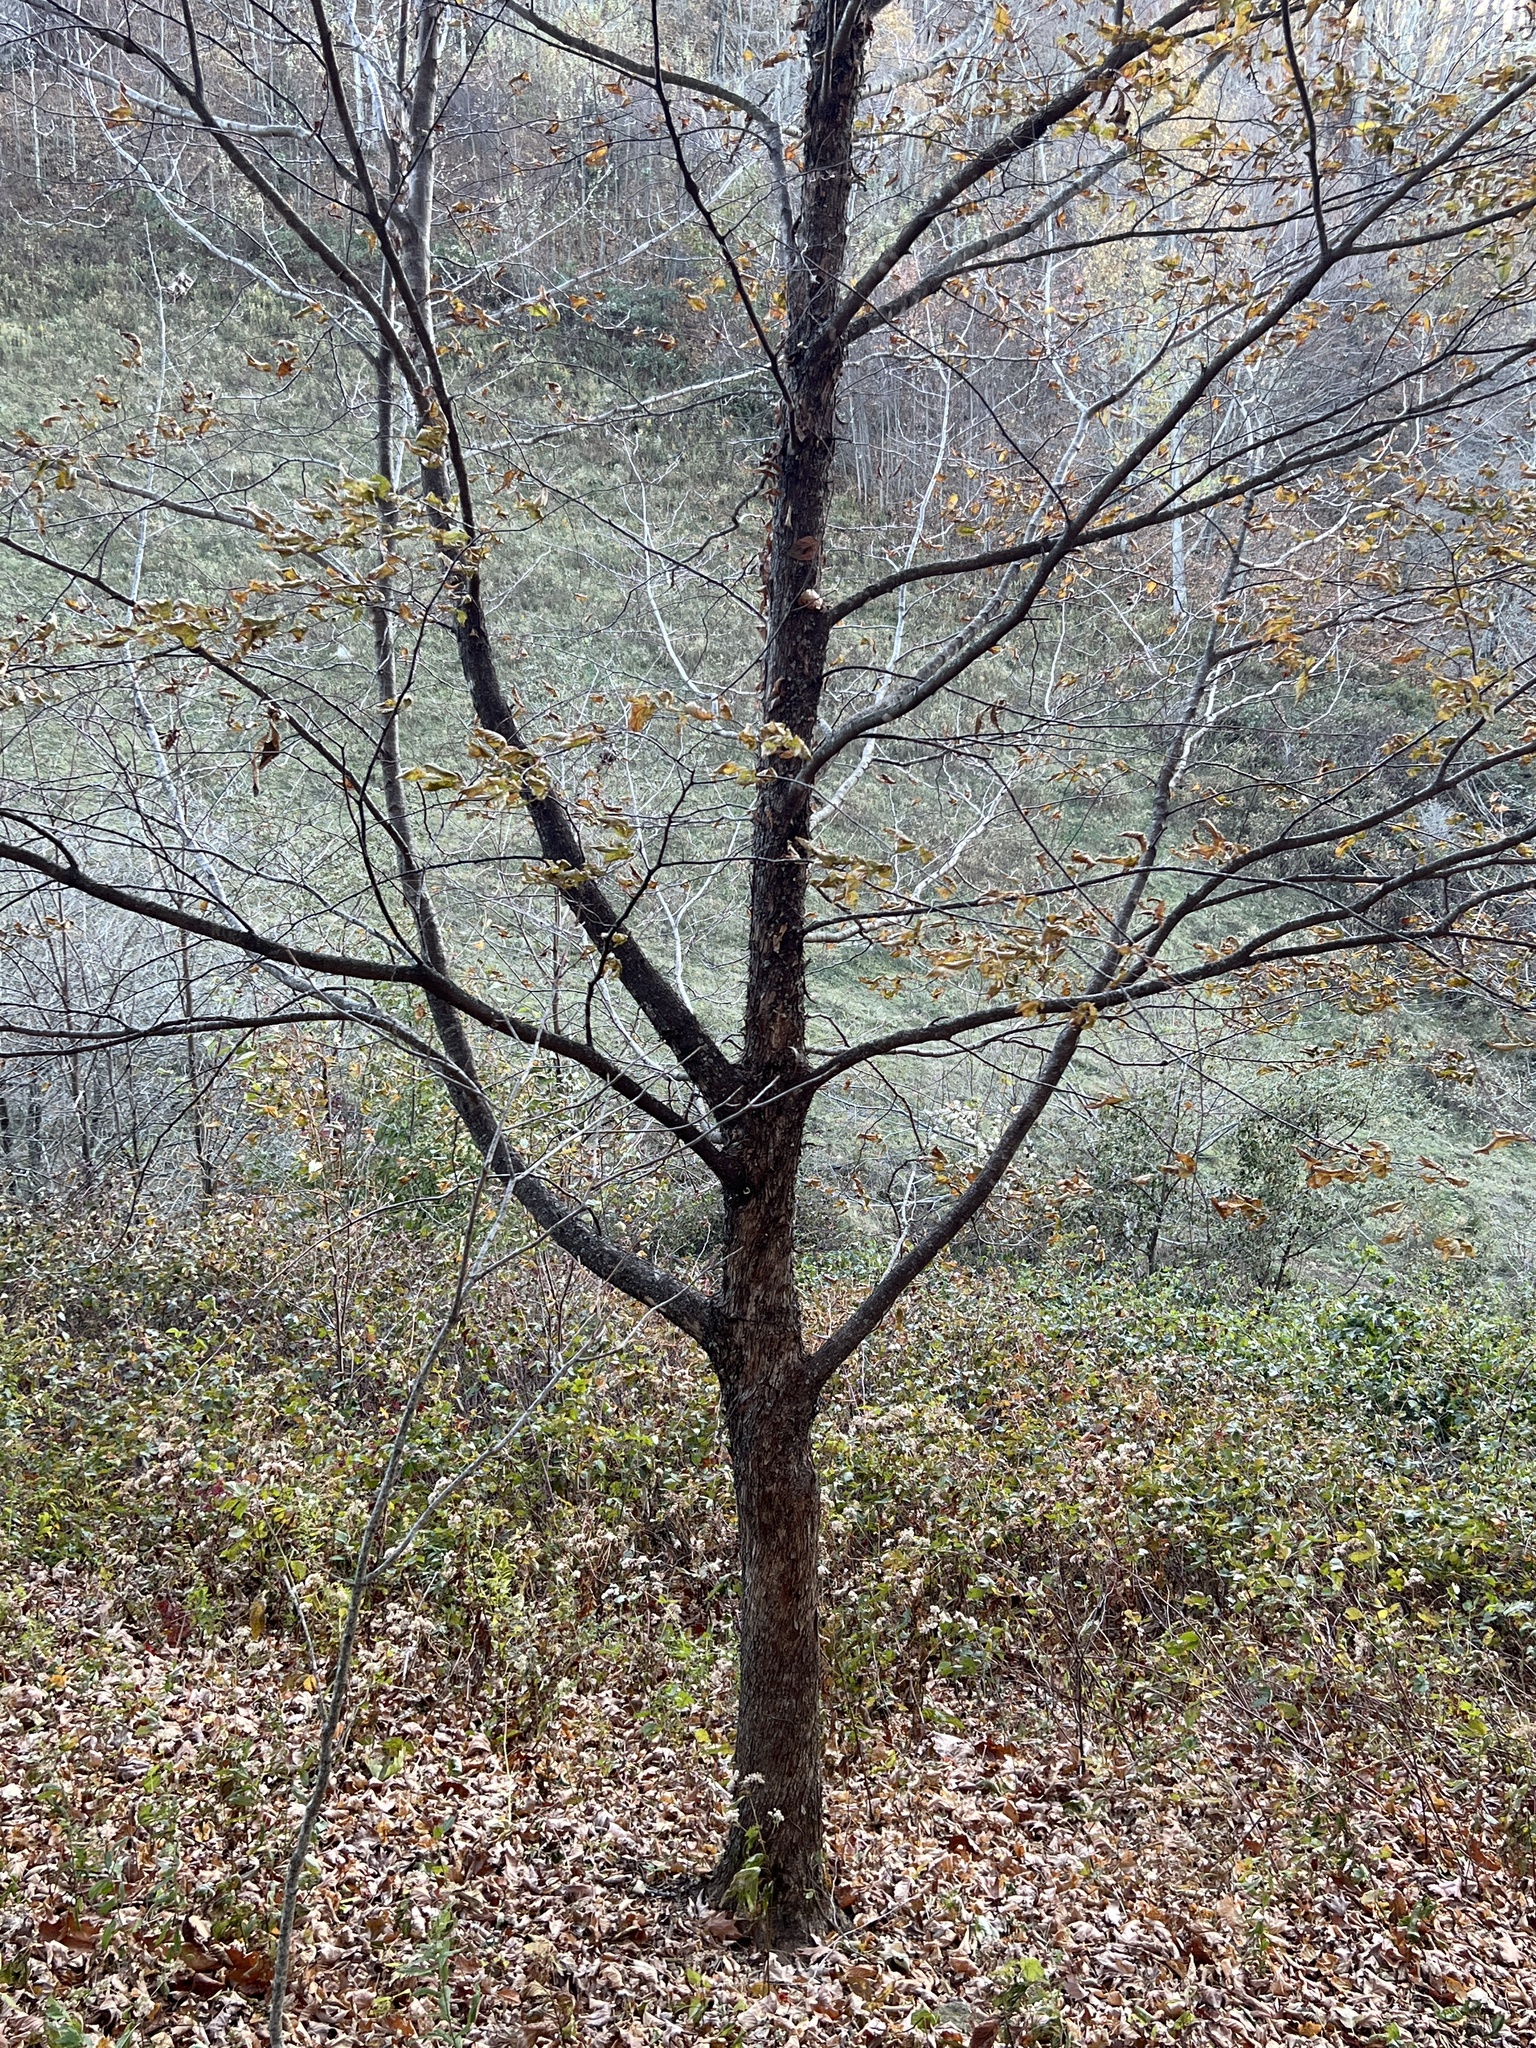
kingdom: Plantae
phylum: Tracheophyta
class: Magnoliopsida
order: Fagales
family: Betulaceae
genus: Ostrya
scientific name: Ostrya virginiana
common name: Ironwood
